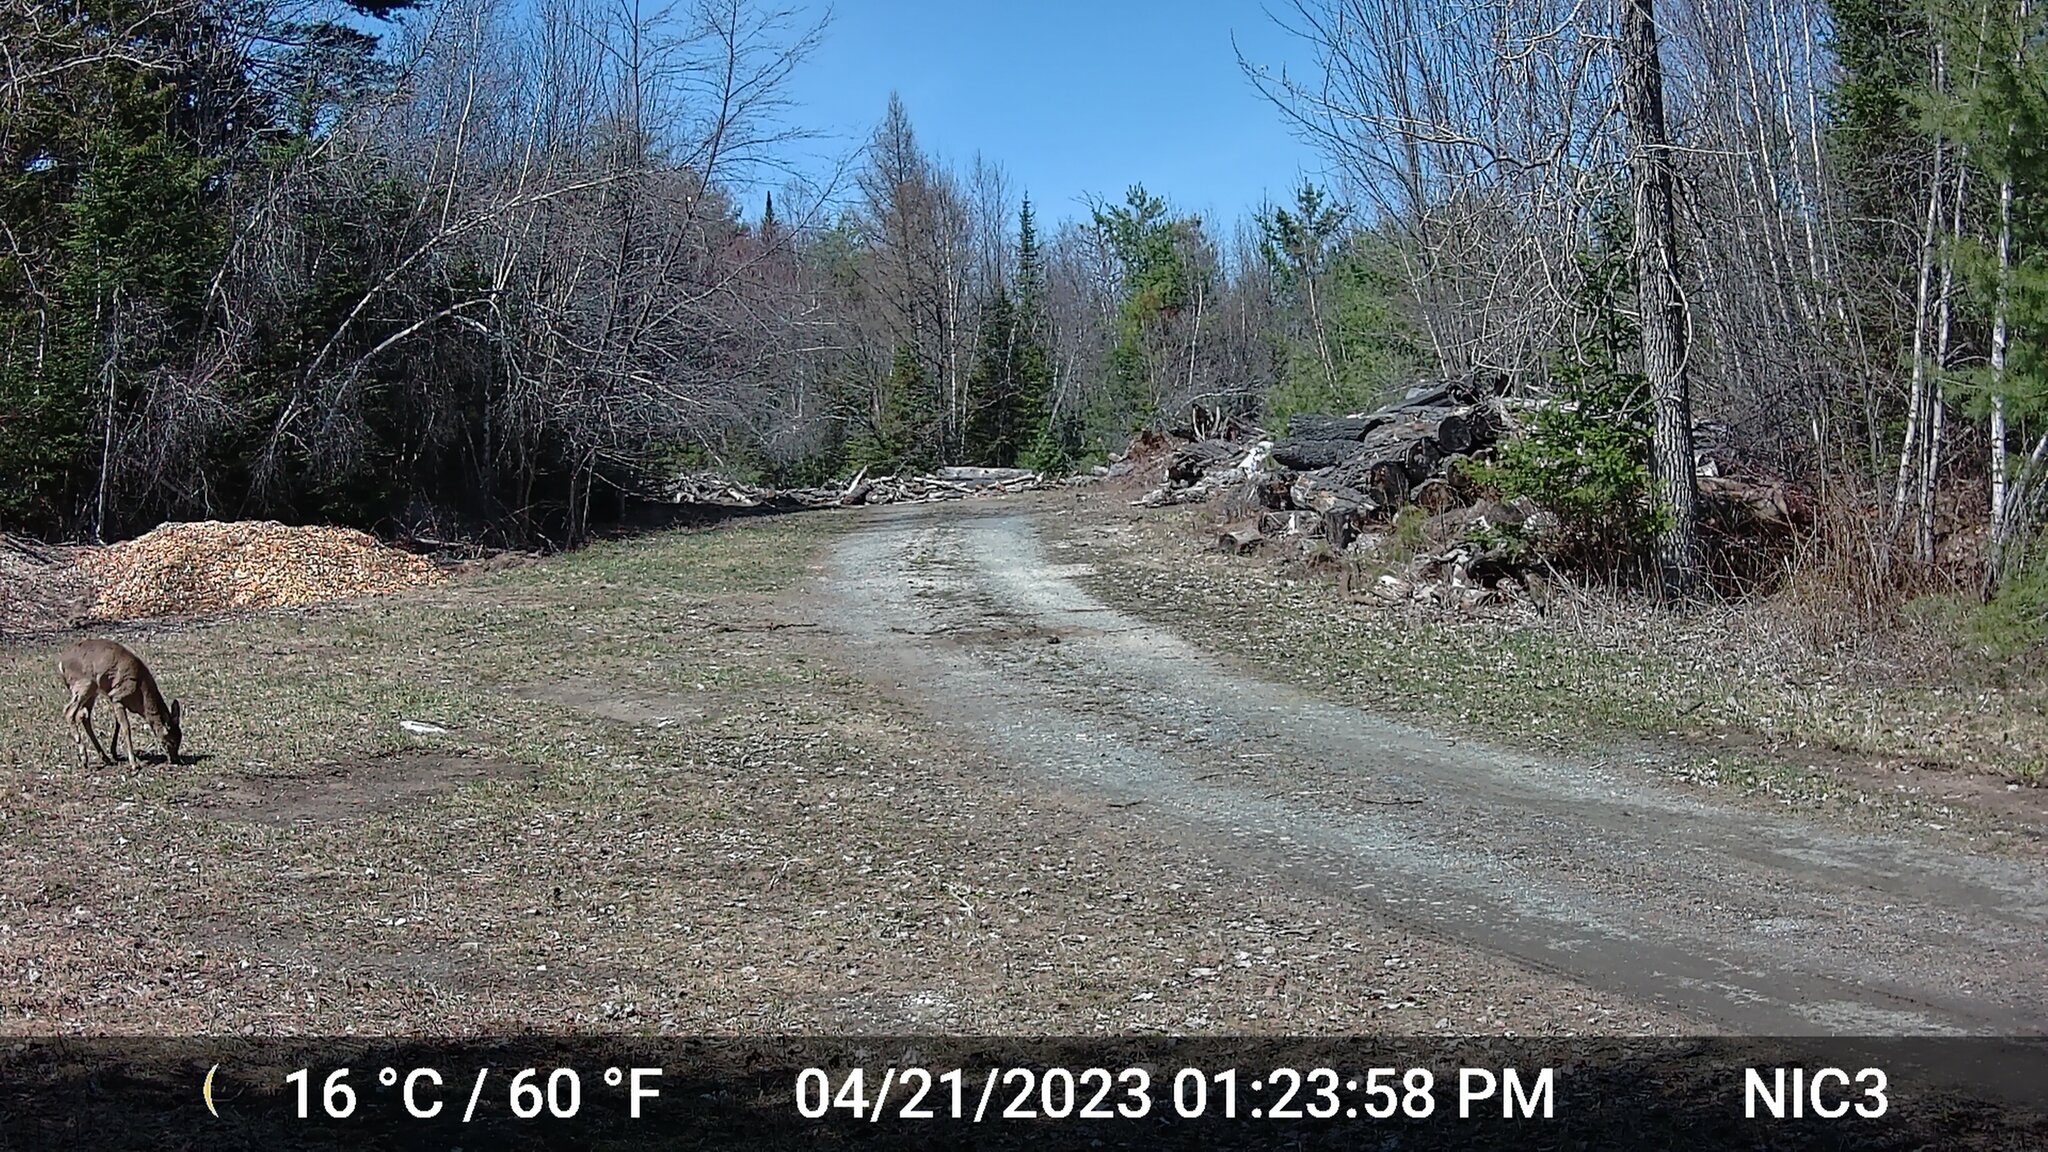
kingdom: Animalia
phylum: Chordata
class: Mammalia
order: Artiodactyla
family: Cervidae
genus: Odocoileus
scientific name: Odocoileus virginianus
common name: White-tailed deer
